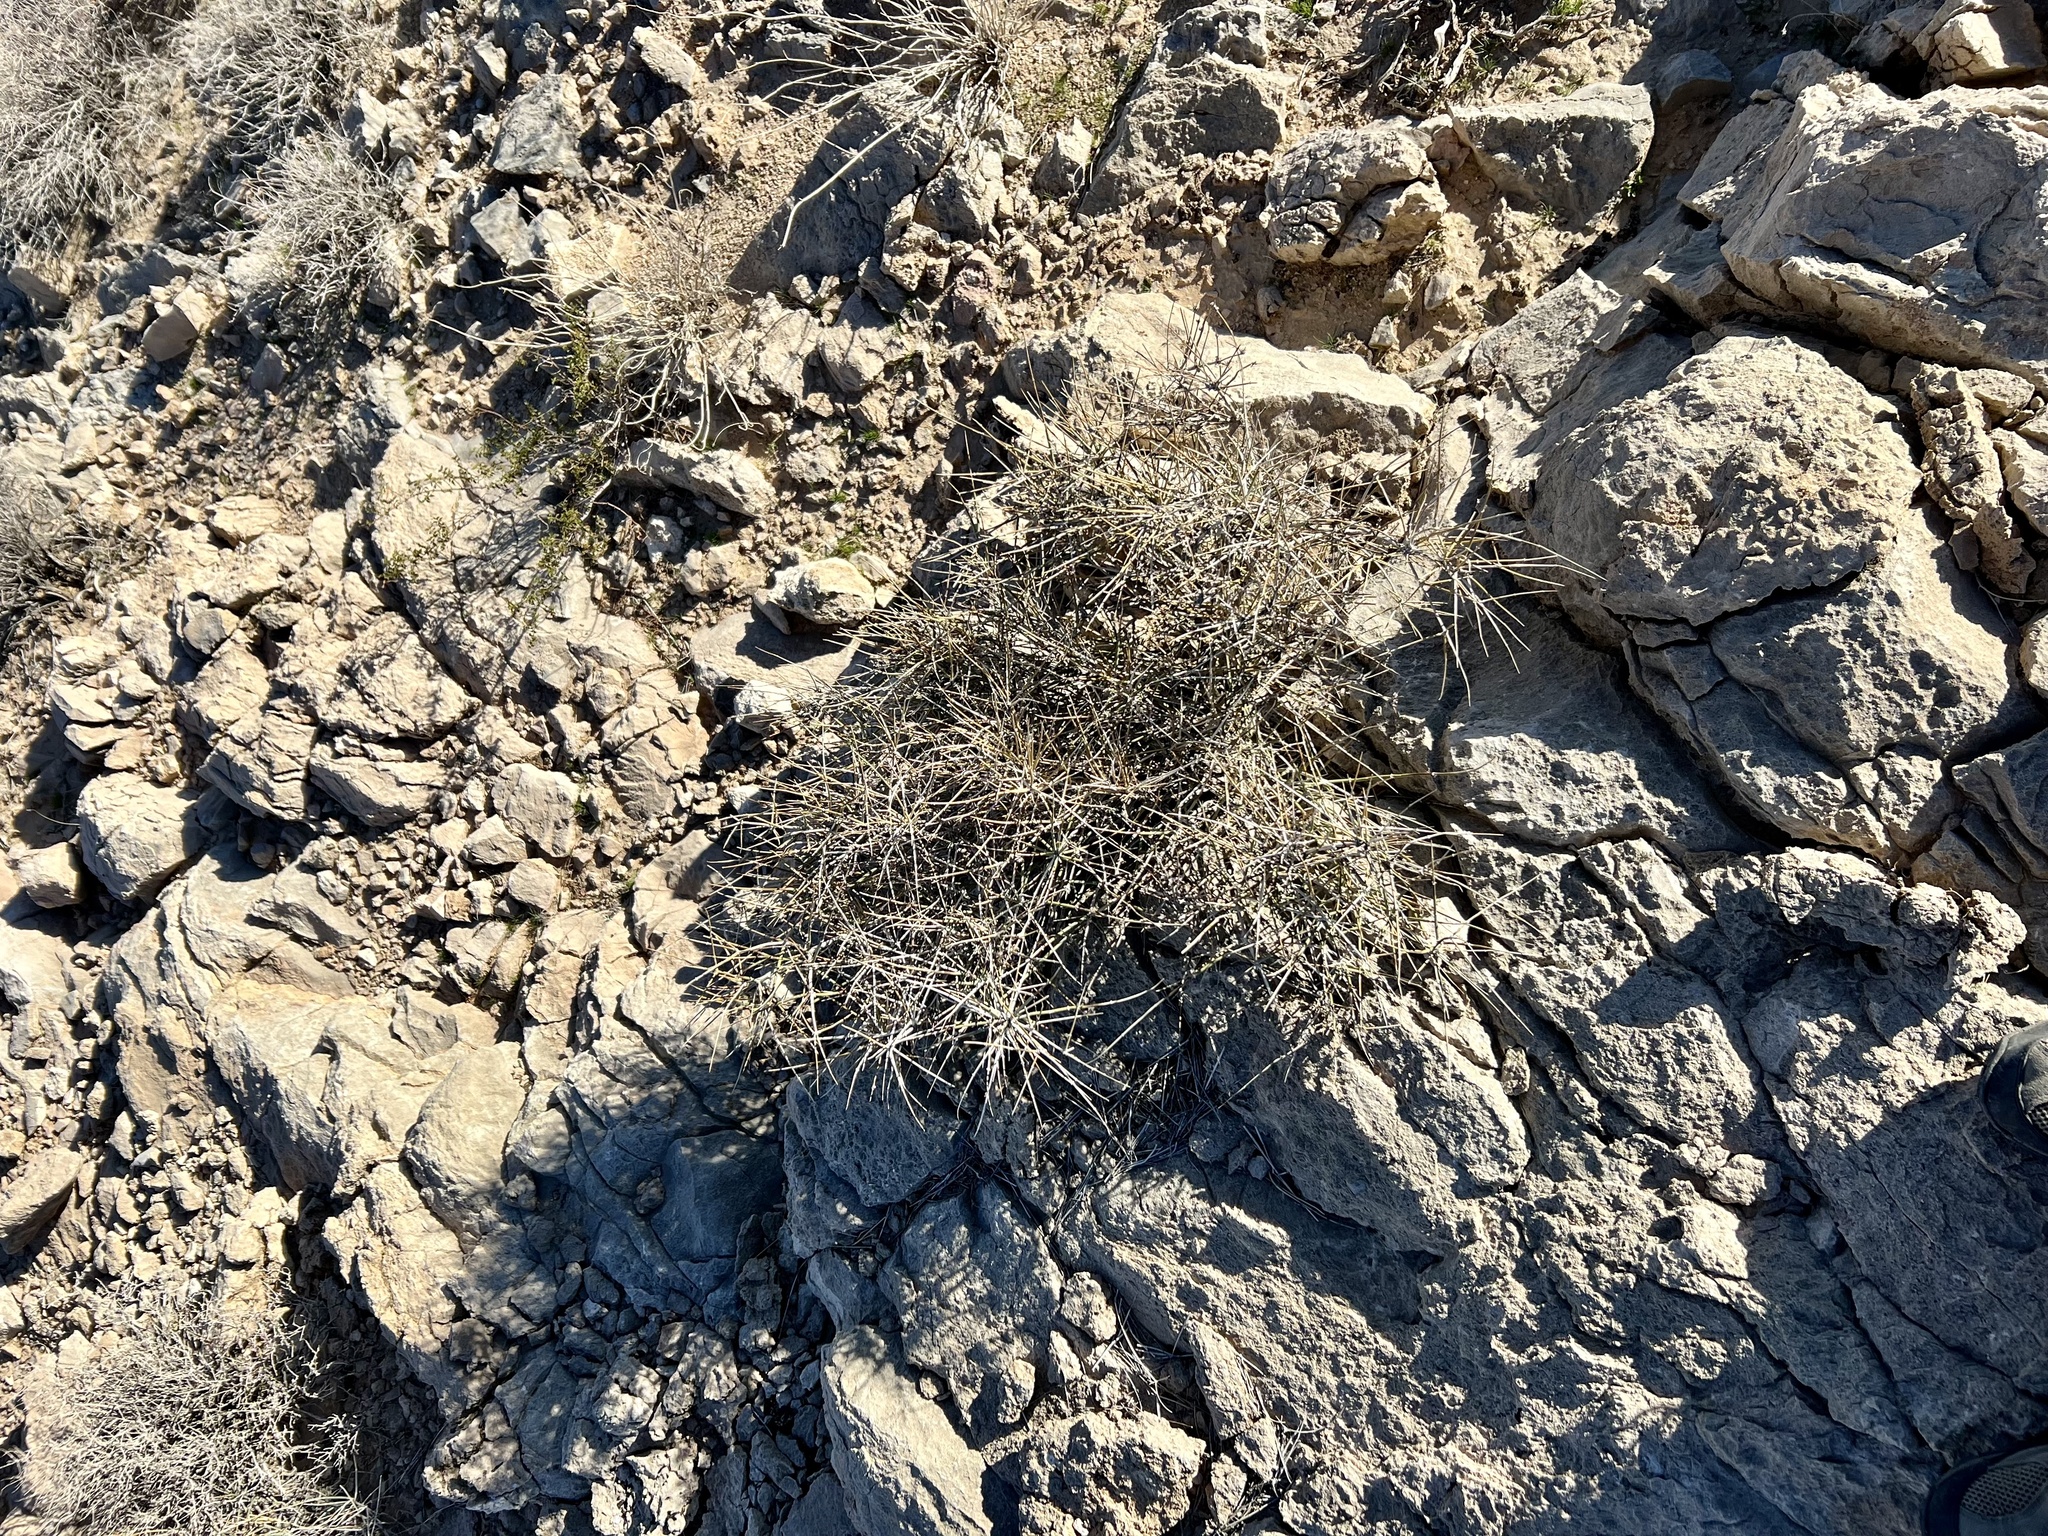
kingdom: Plantae
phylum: Tracheophyta
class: Gnetopsida
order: Ephedrales
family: Ephedraceae
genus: Ephedra
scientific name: Ephedra nevadensis
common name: Gray ephedra
